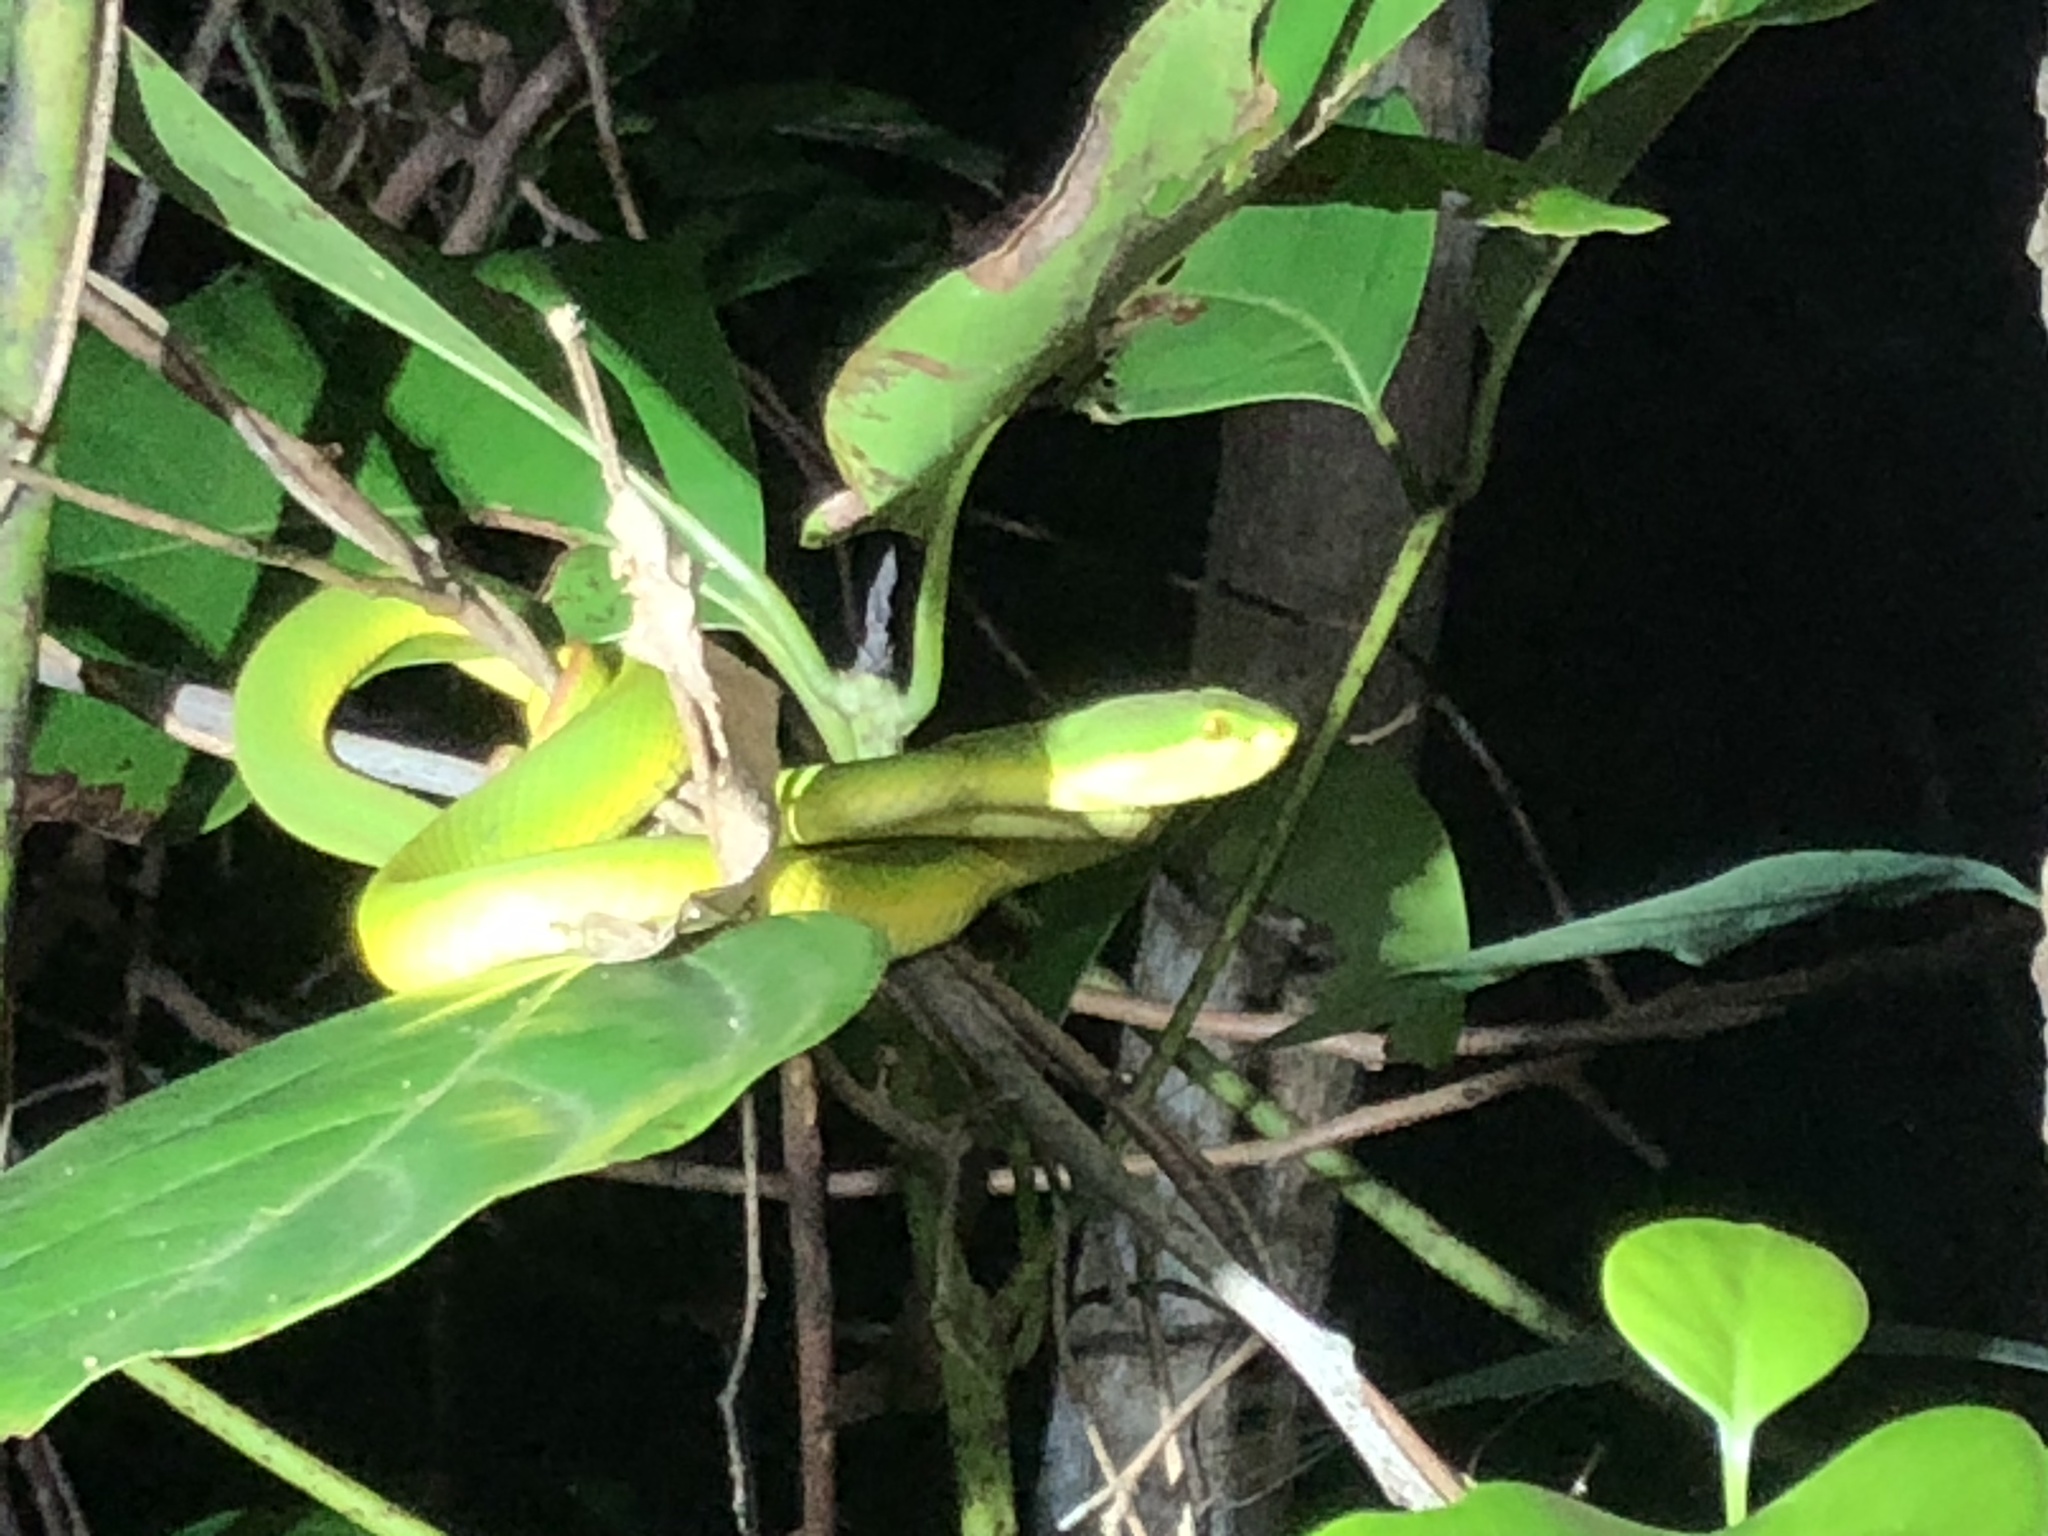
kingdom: Animalia
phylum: Chordata
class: Squamata
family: Viperidae
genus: Trimeresurus
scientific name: Trimeresurus albolabris
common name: White-lipped pitviper
